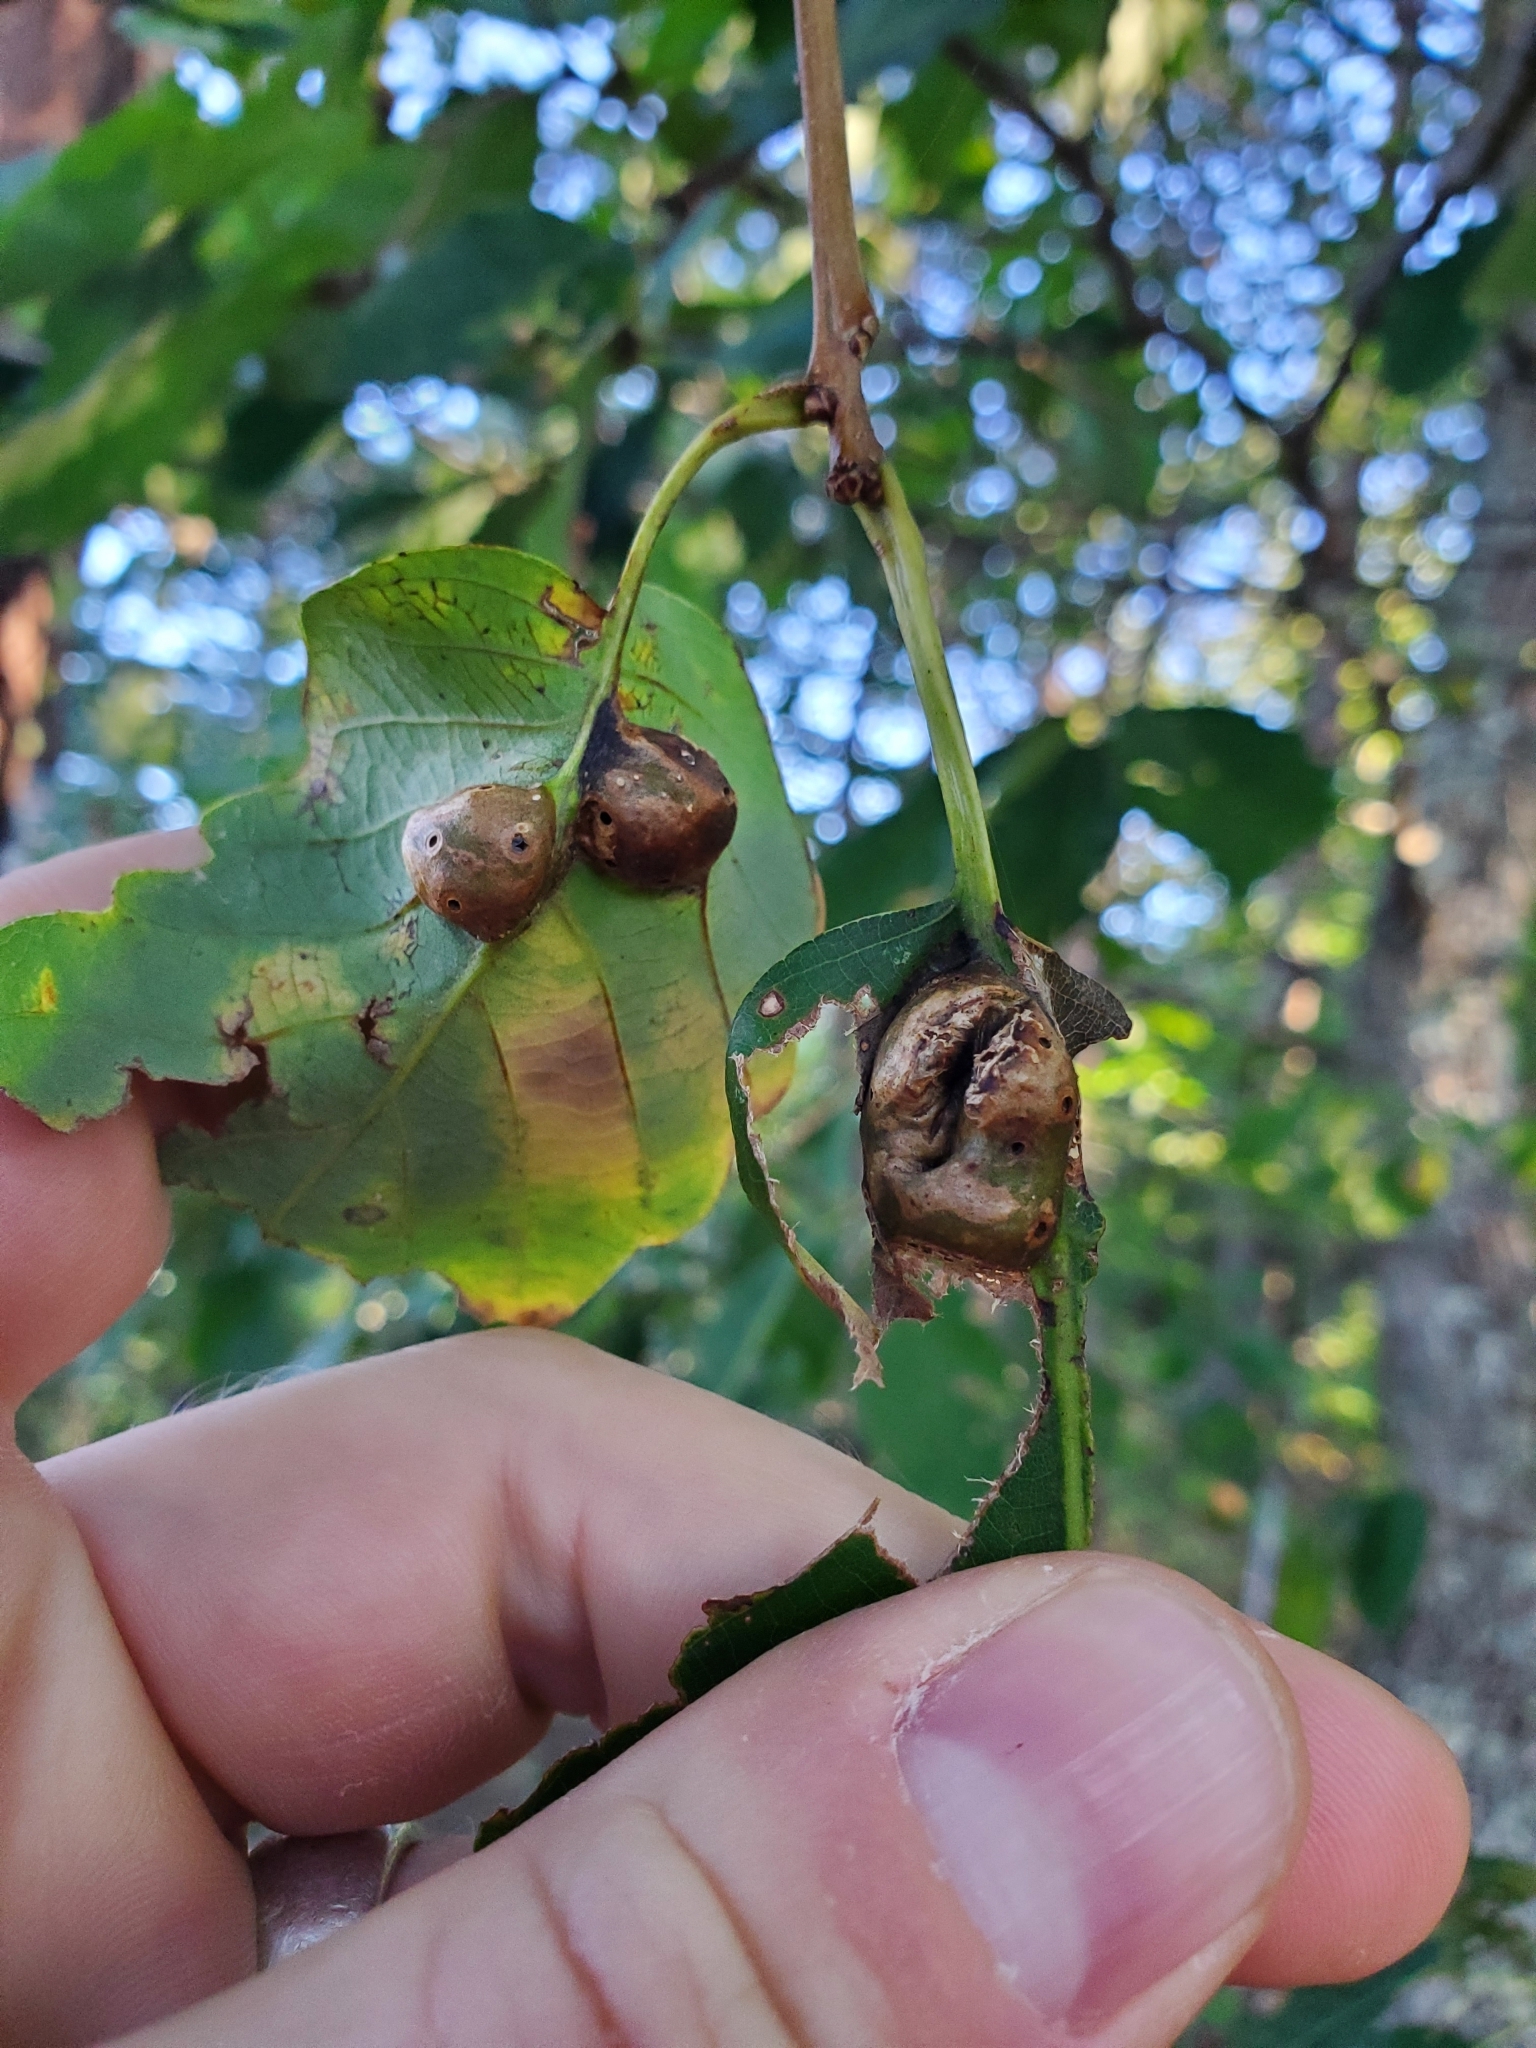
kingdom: Animalia
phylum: Arthropoda
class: Insecta
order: Hymenoptera
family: Cynipidae
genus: Andricus
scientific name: Andricus
